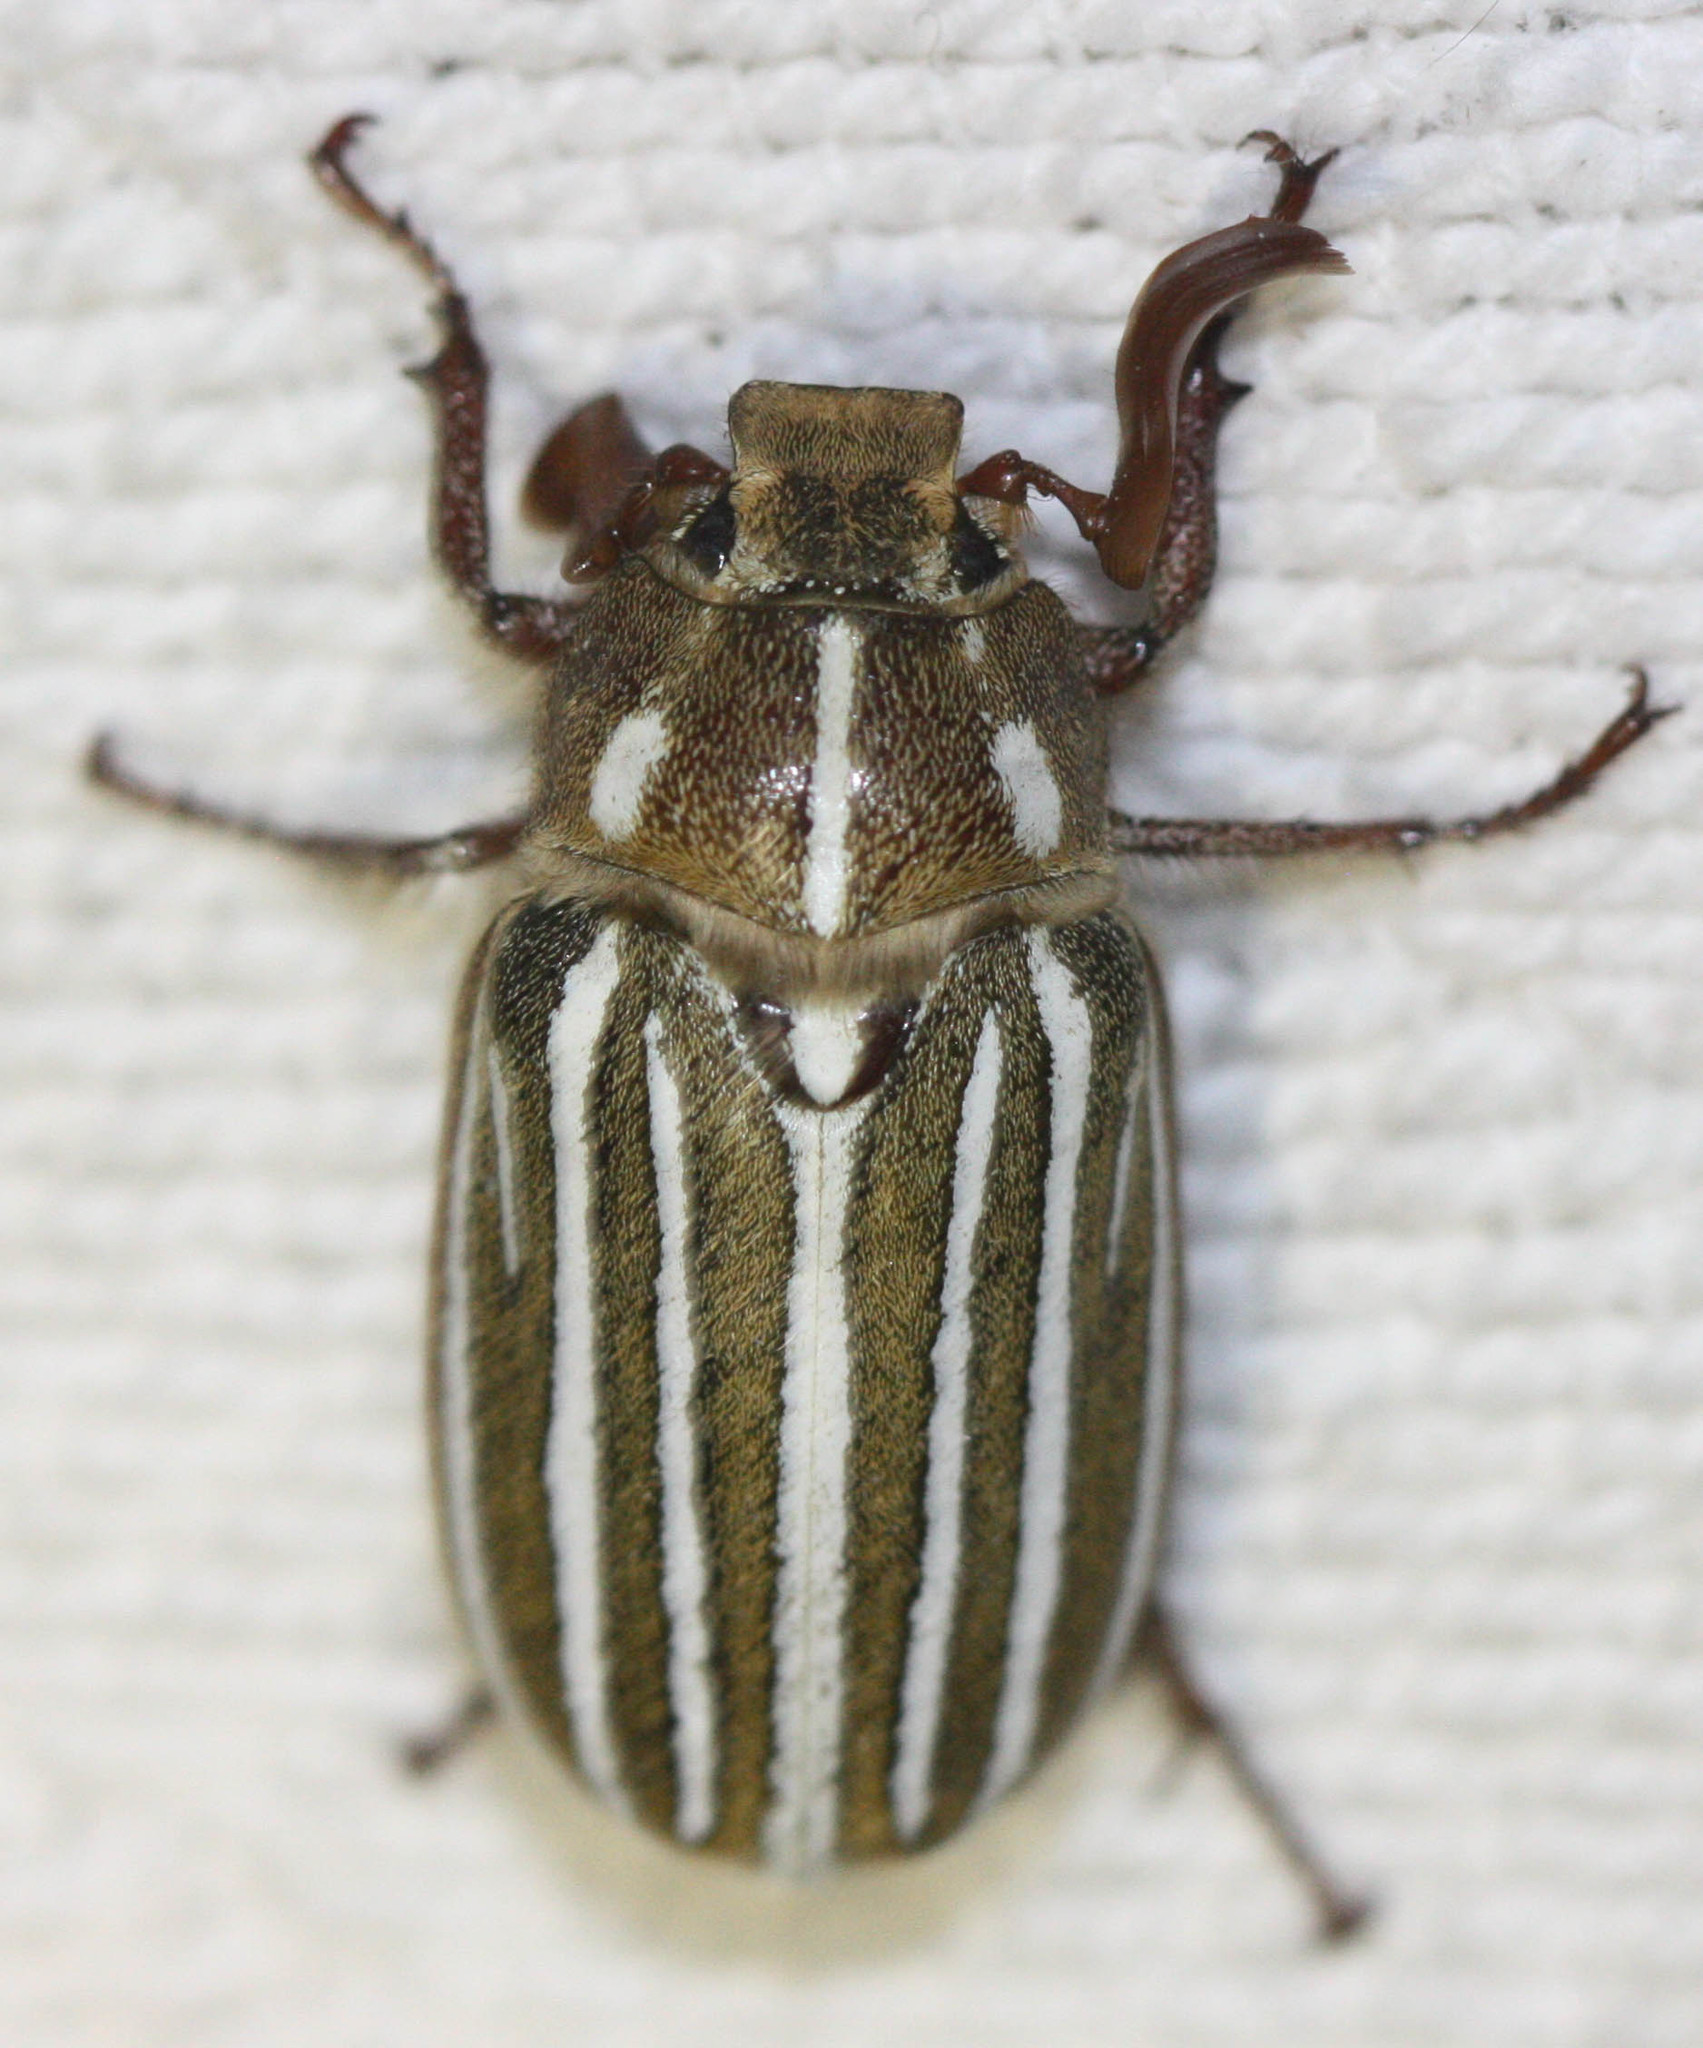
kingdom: Animalia
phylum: Arthropoda
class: Insecta
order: Coleoptera
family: Scarabaeidae
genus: Polyphylla
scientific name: Polyphylla decemlineata
